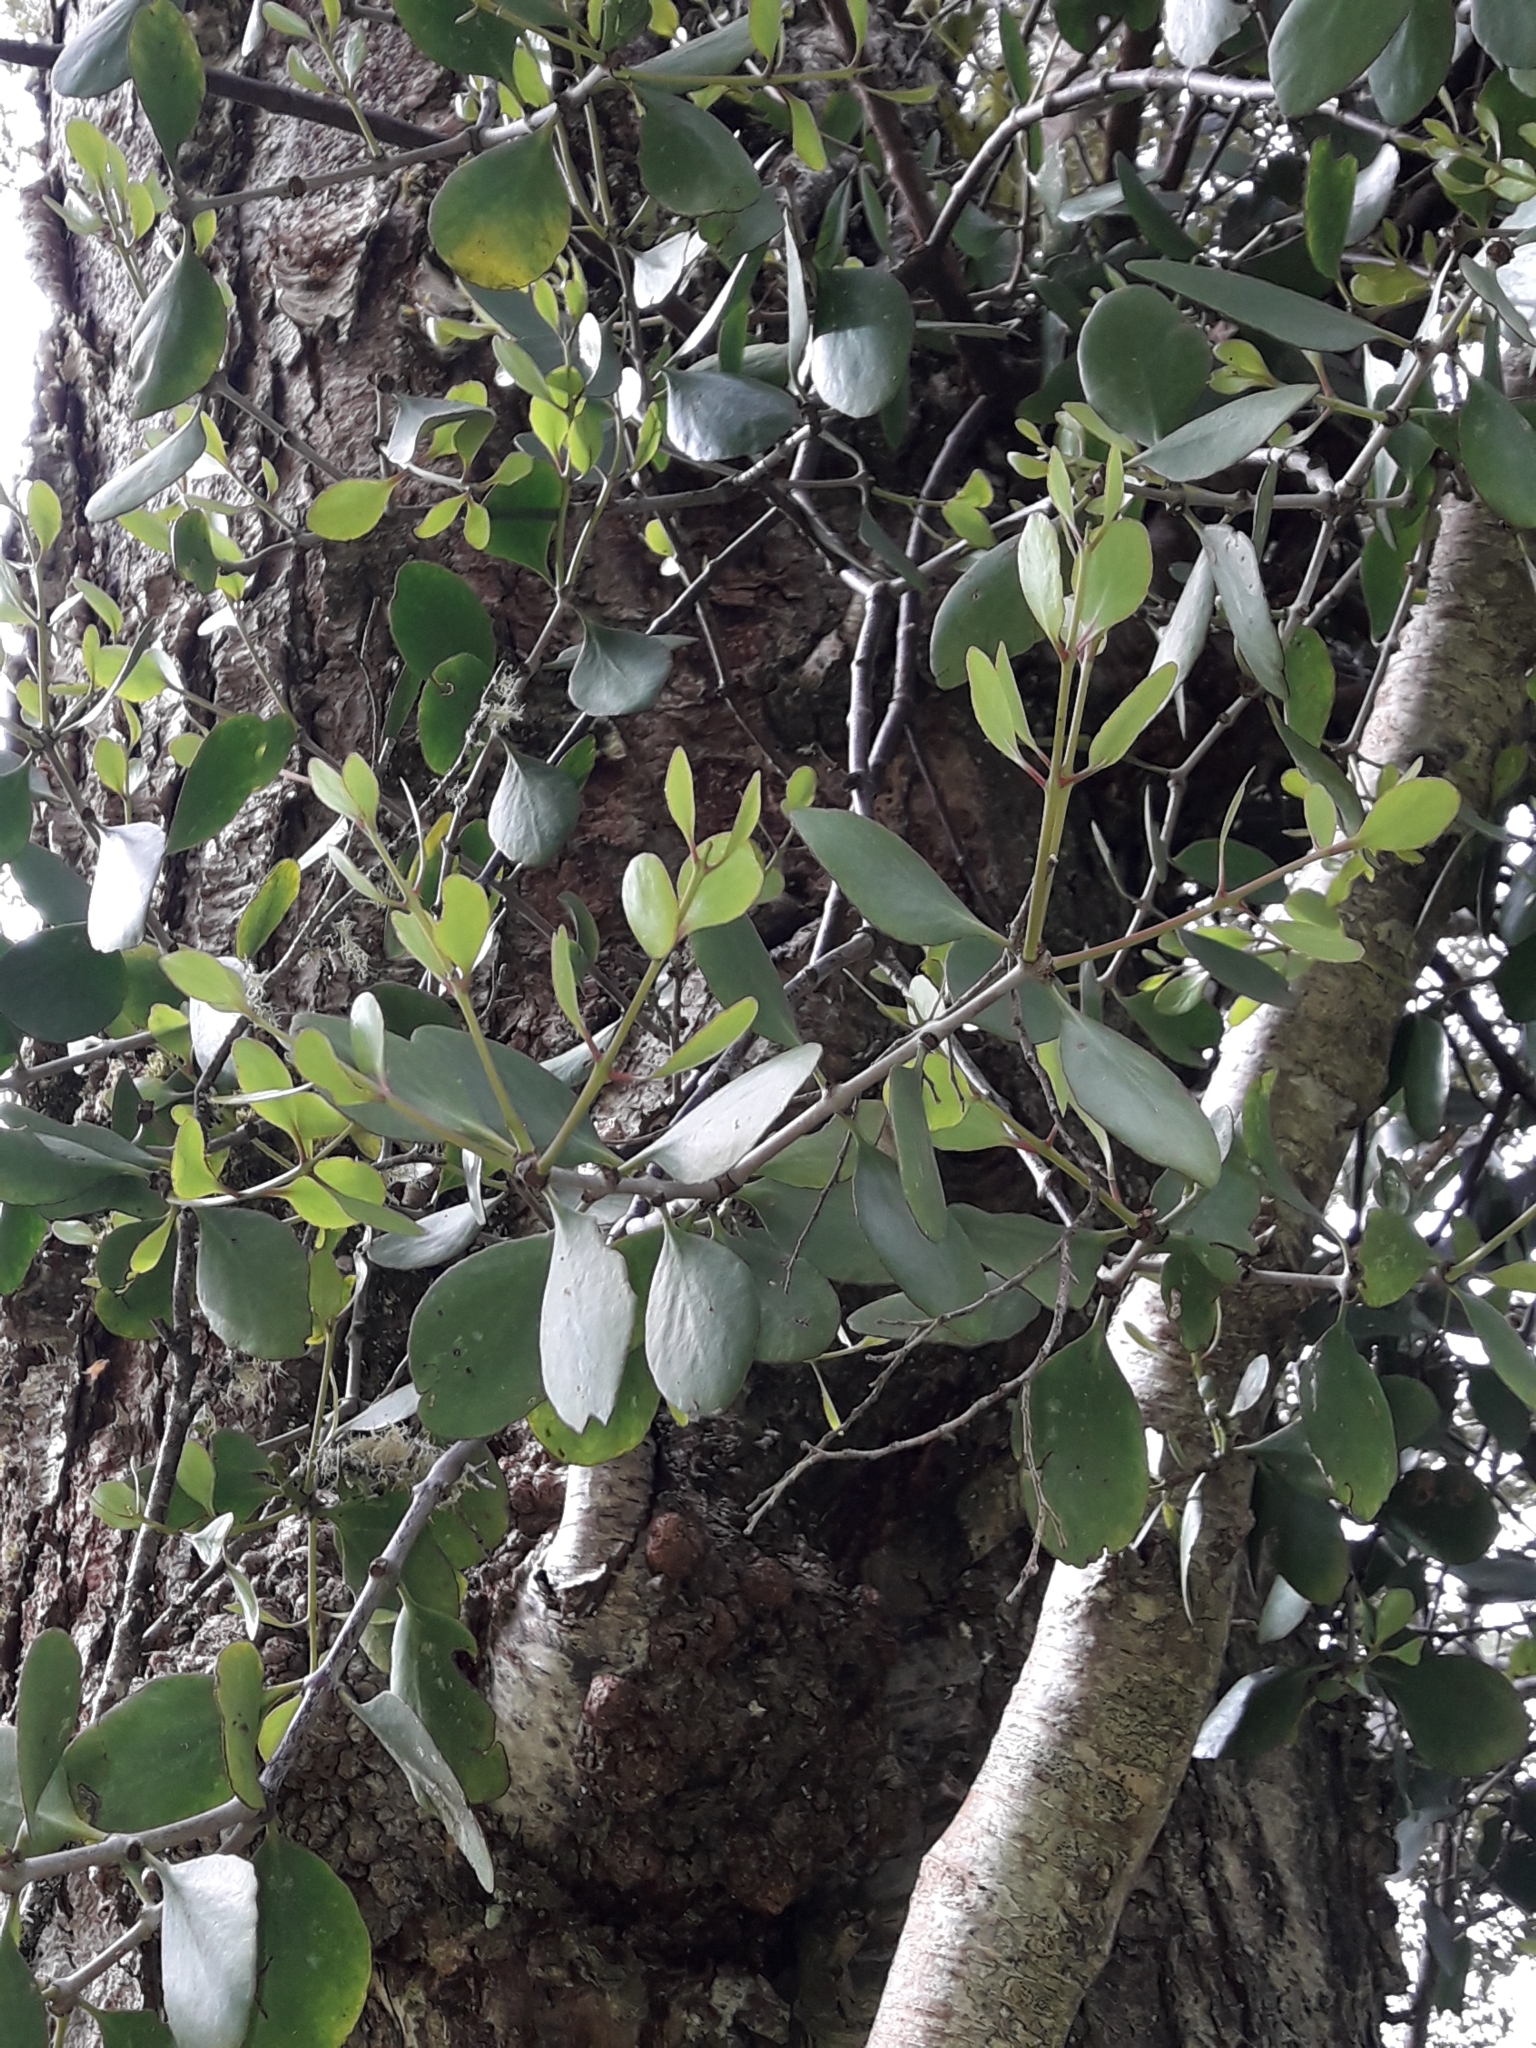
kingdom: Plantae
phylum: Tracheophyta
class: Magnoliopsida
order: Santalales
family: Loranthaceae
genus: Ileostylus
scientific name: Ileostylus micranthus
